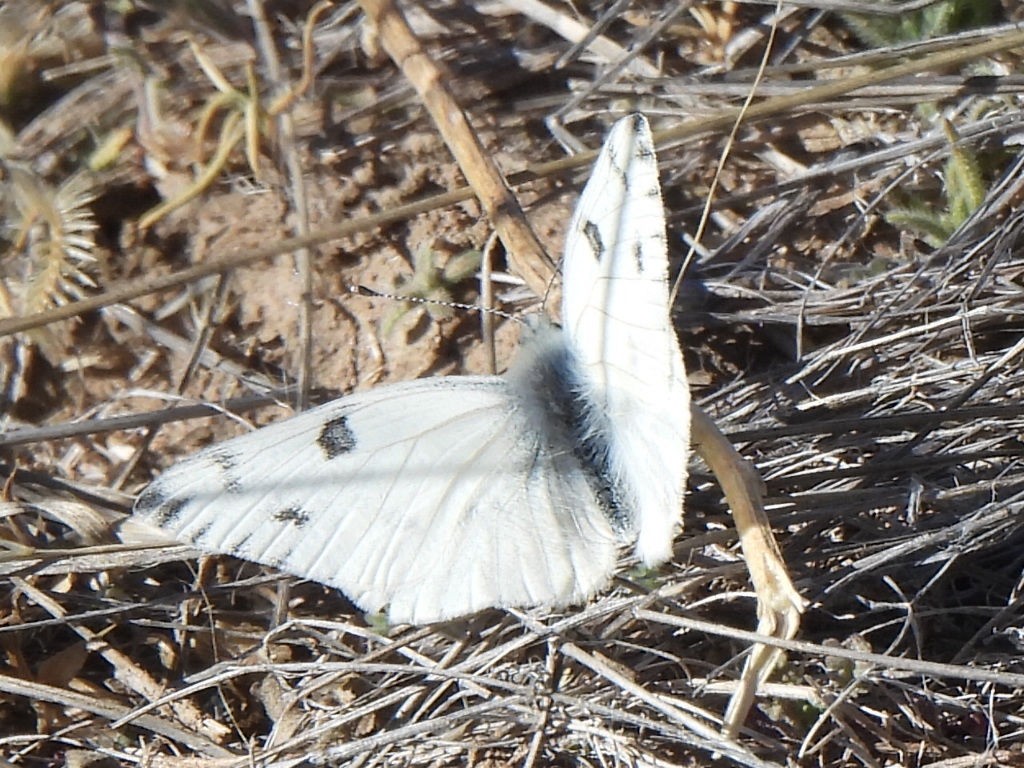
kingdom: Animalia
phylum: Arthropoda
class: Insecta
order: Lepidoptera
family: Pieridae
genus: Pontia
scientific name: Pontia protodice
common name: Checkered white
